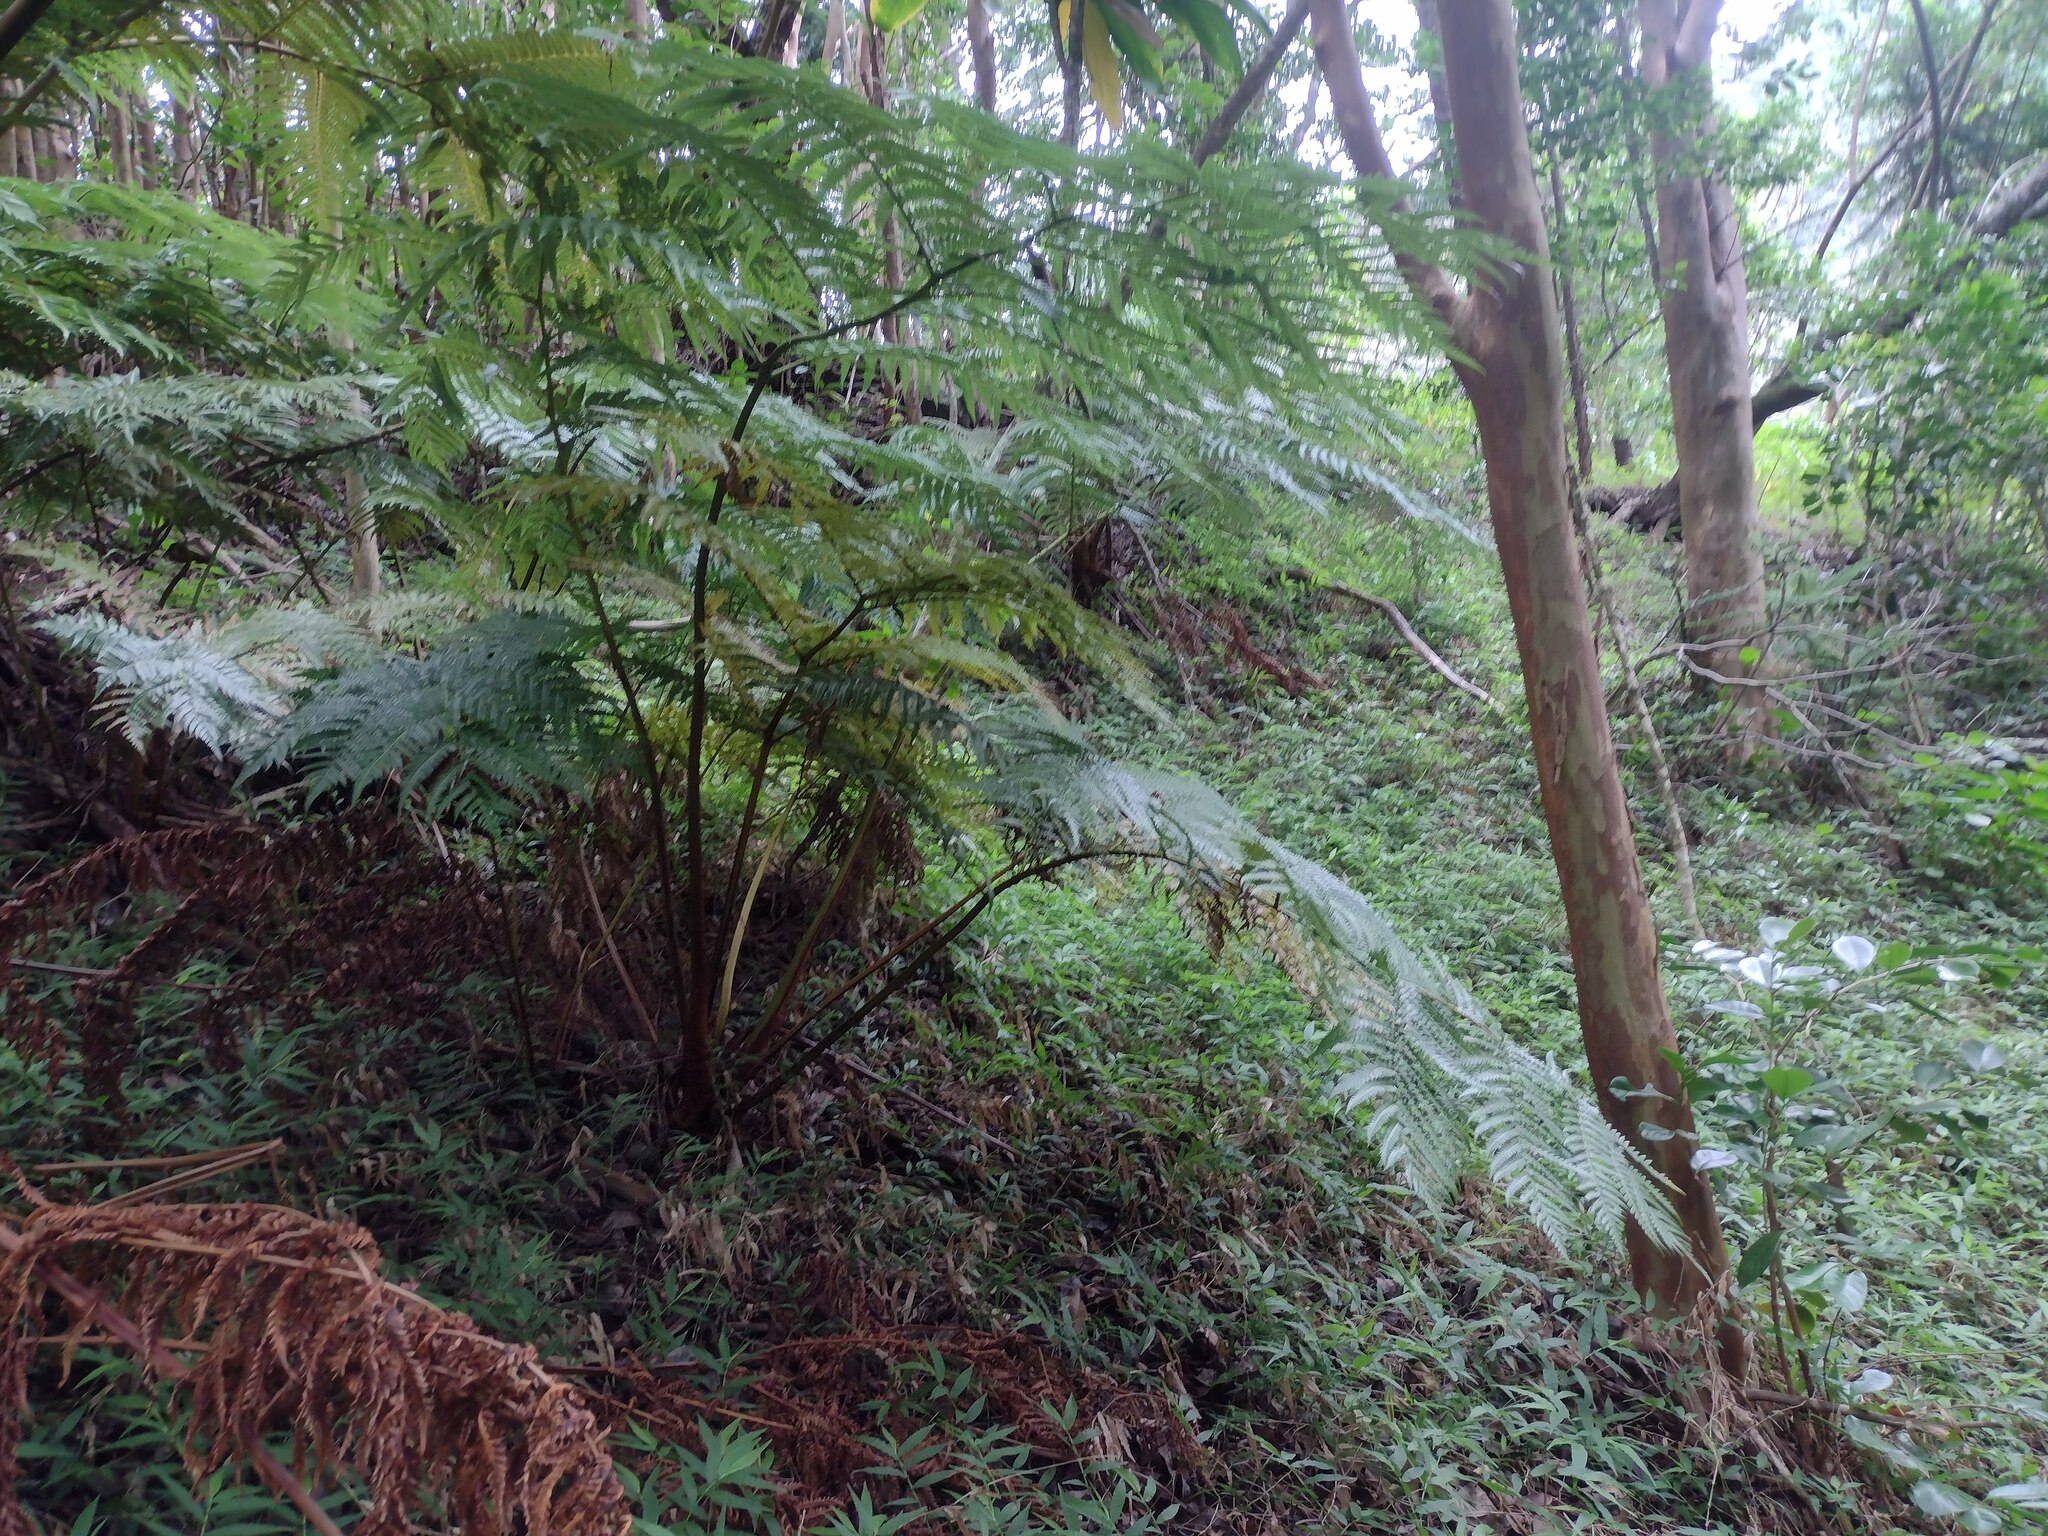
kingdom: Plantae
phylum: Tracheophyta
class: Polypodiopsida
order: Cyatheales
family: Cibotiaceae
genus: Cibotium
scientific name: Cibotium glaucum
